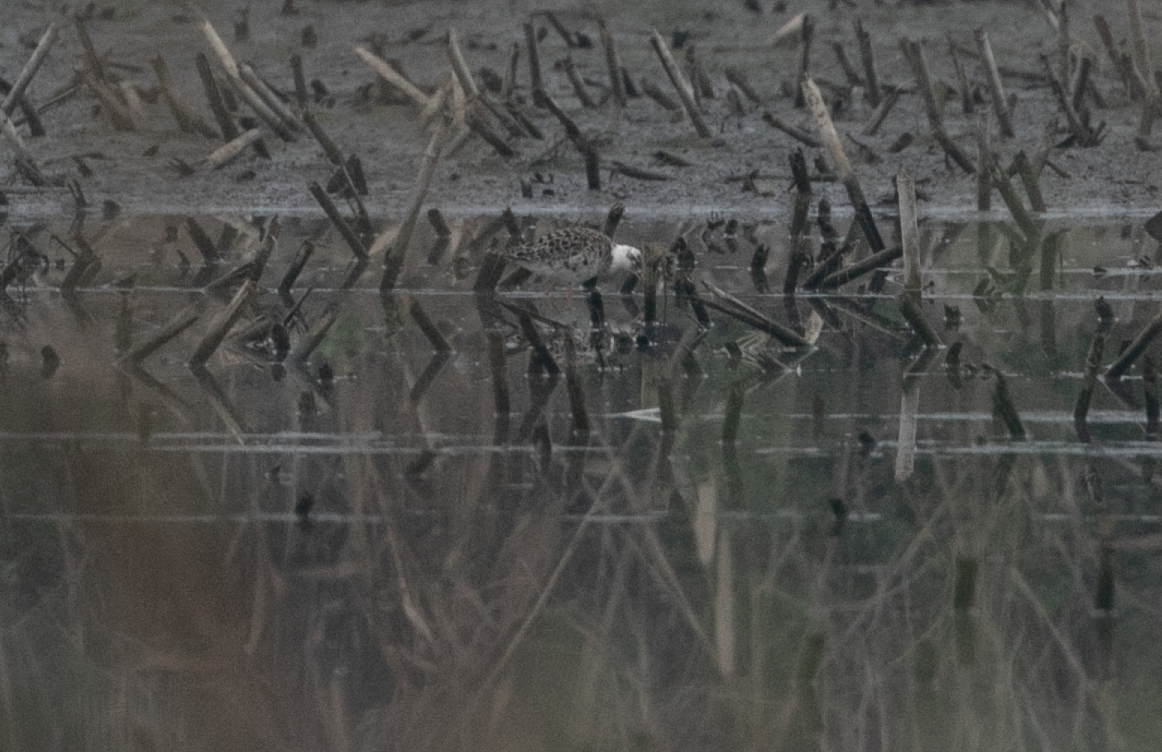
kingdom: Animalia
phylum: Chordata
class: Aves
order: Charadriiformes
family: Scolopacidae
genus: Calidris
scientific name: Calidris pugnax
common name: Ruff
